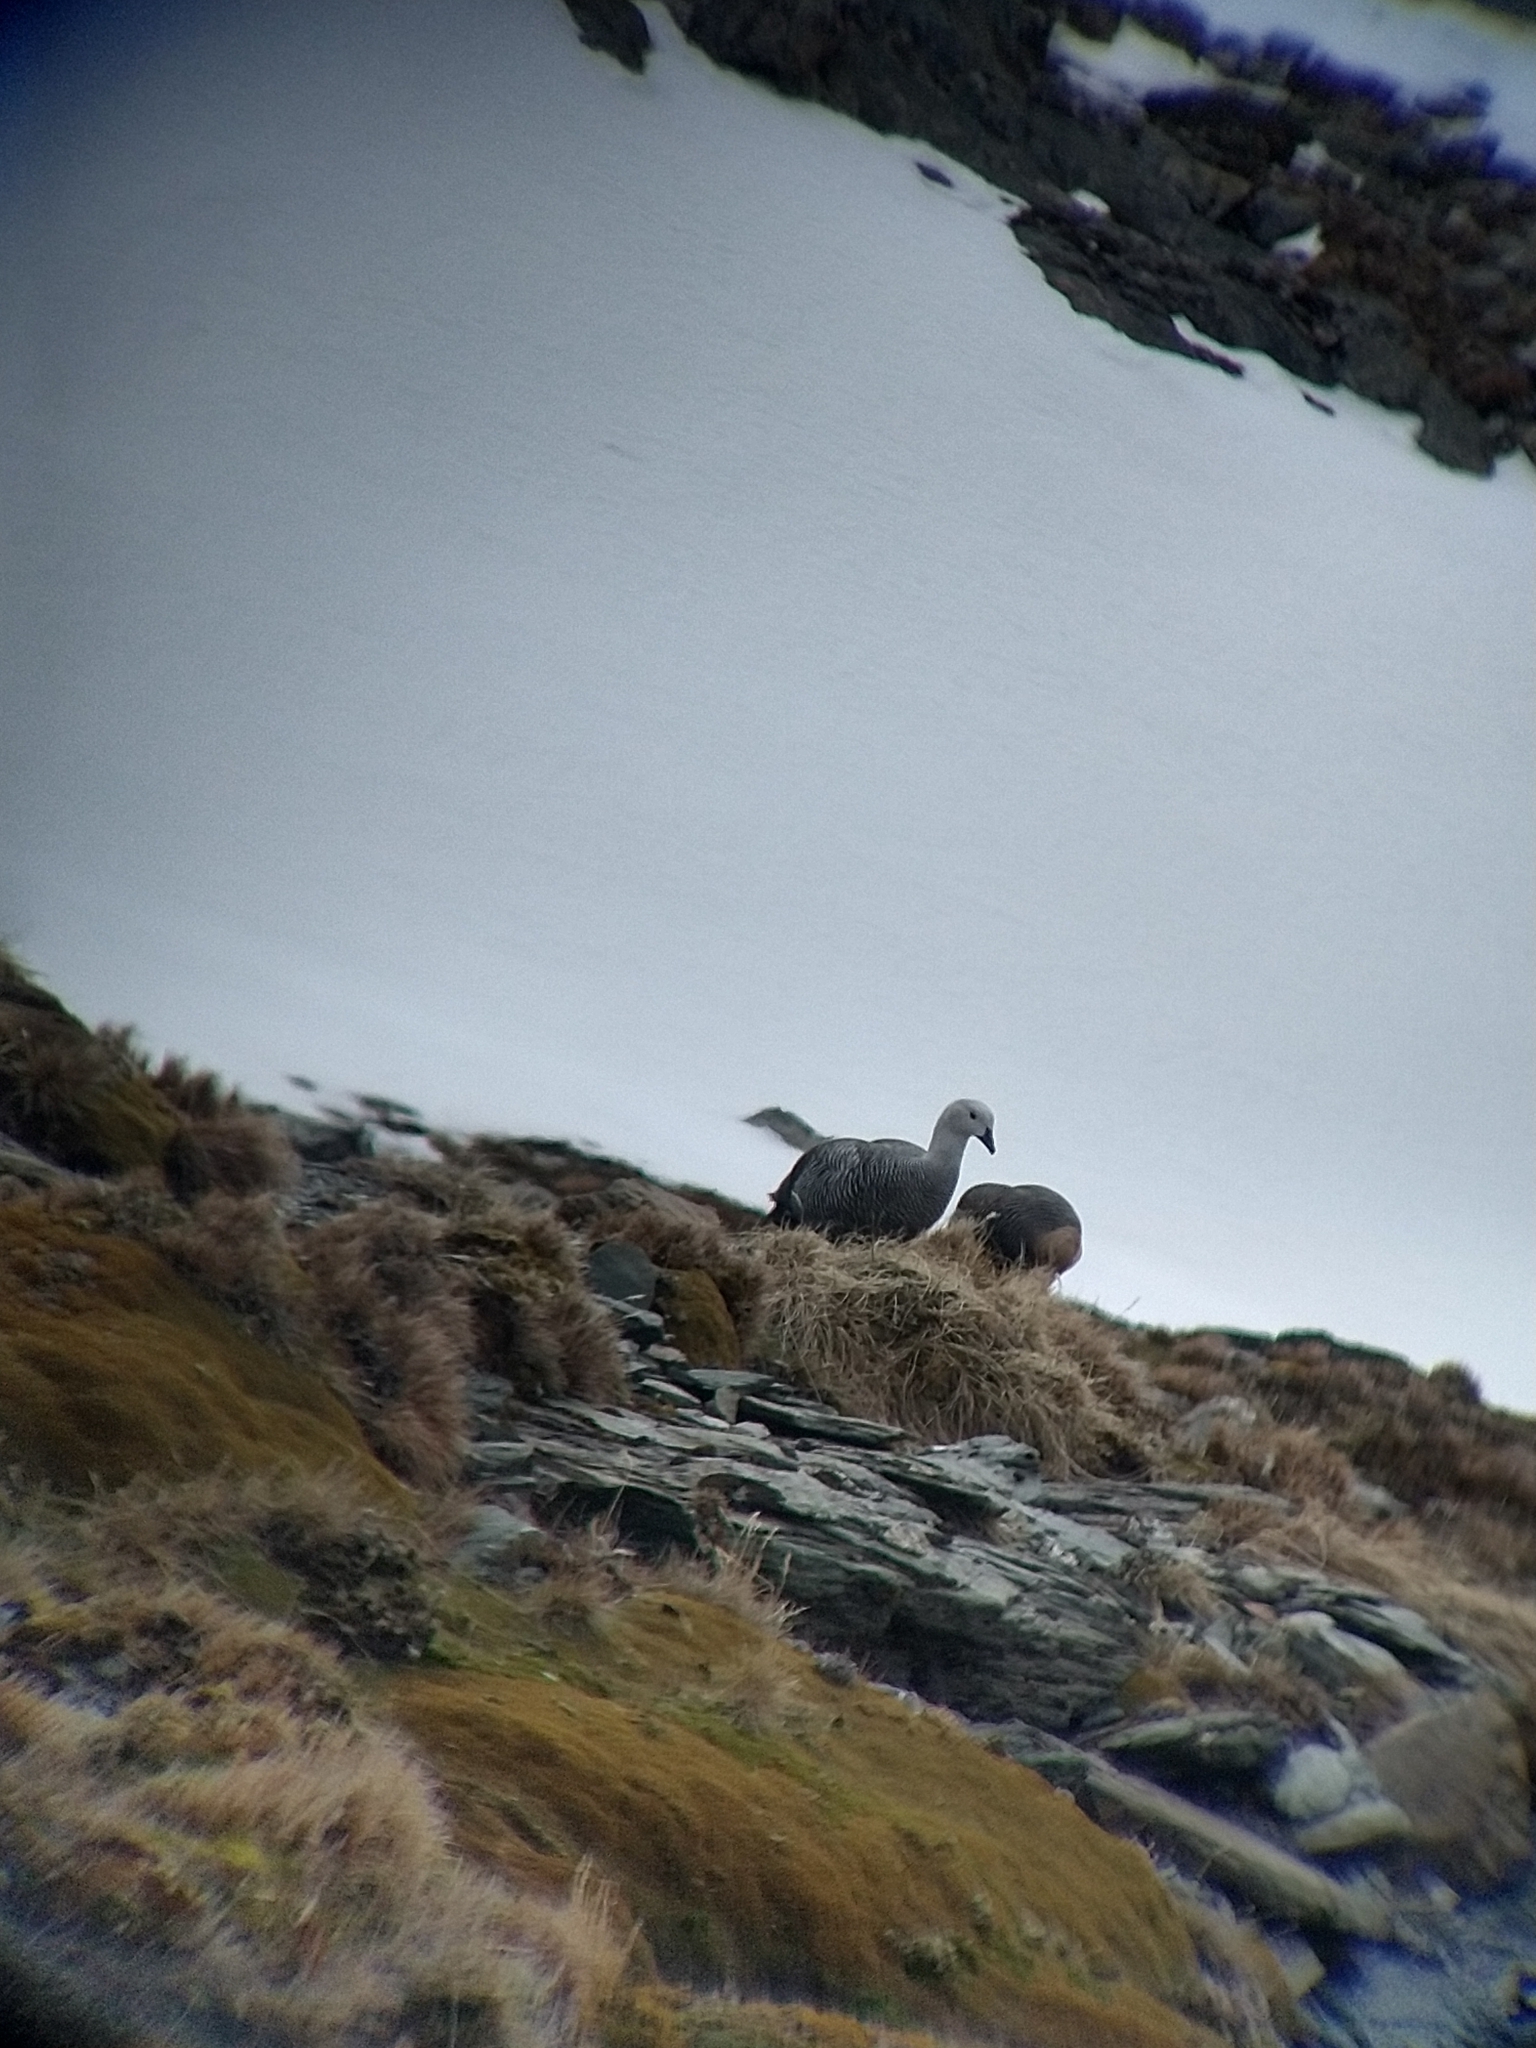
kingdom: Animalia
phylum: Chordata
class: Aves
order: Anseriformes
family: Anatidae
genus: Chloephaga
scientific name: Chloephaga picta
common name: Upland goose
